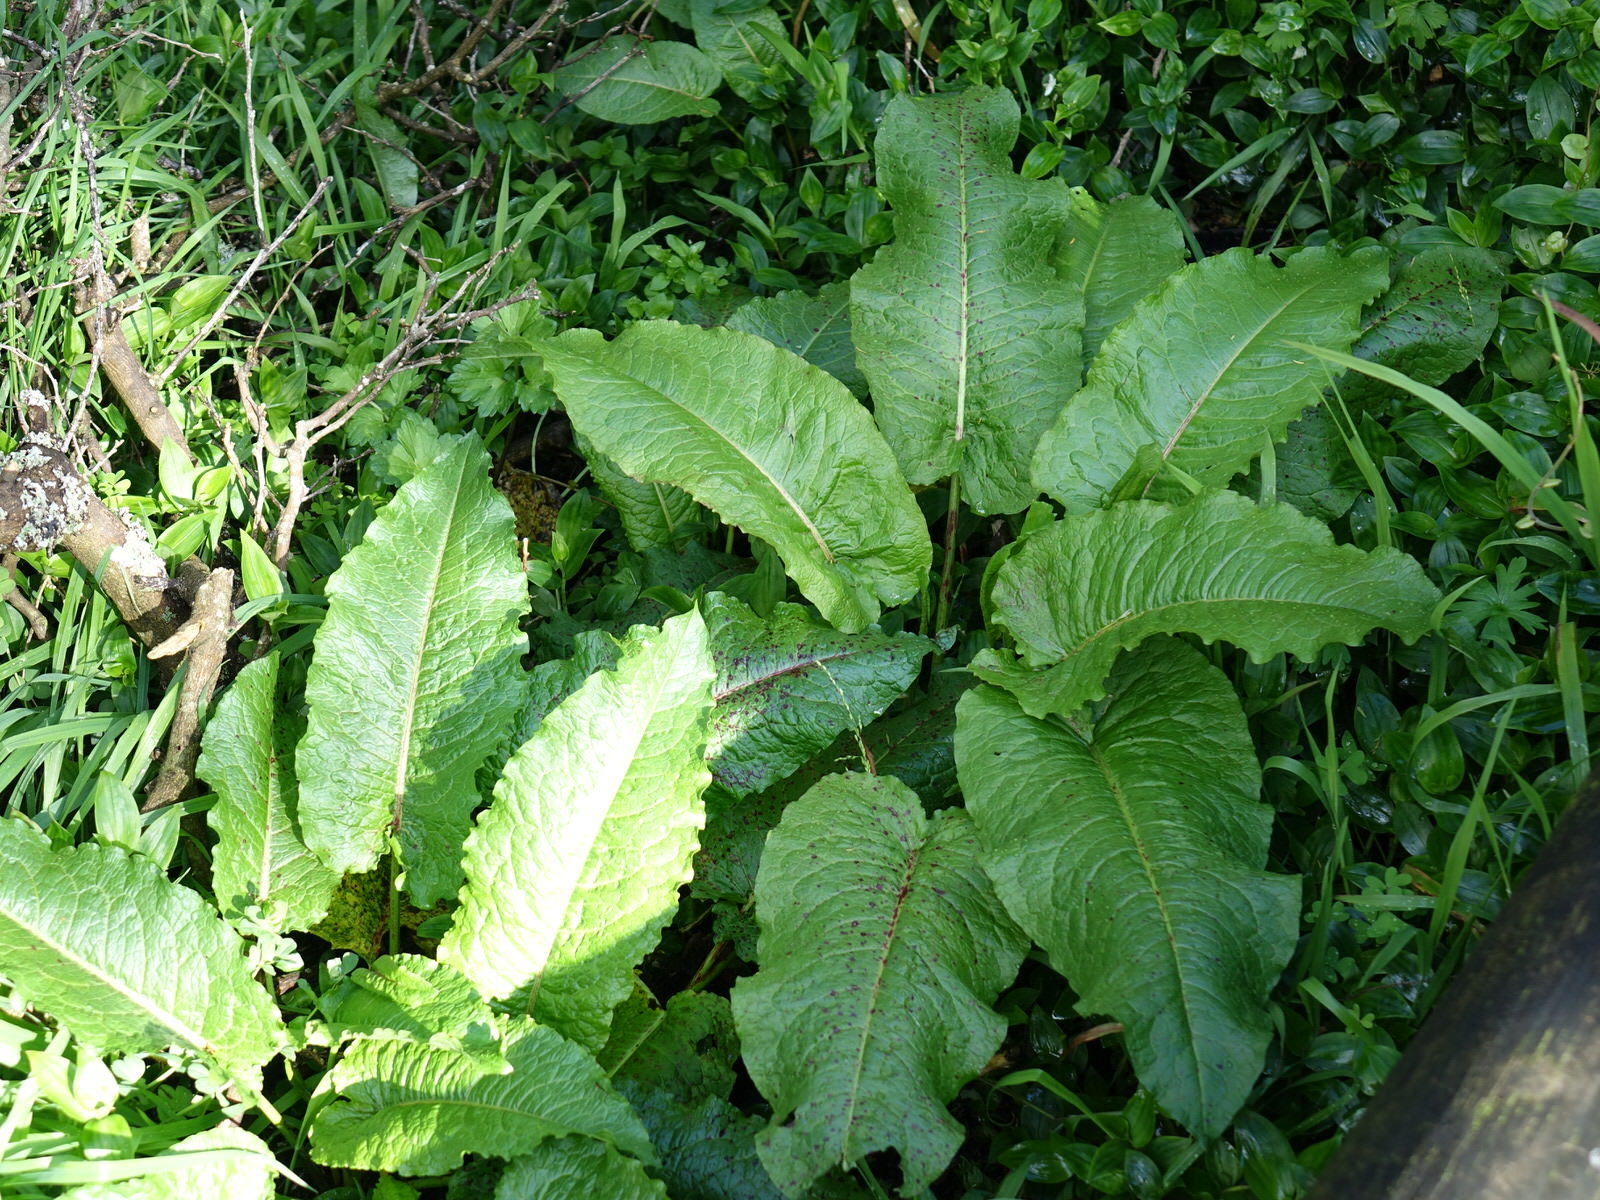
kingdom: Plantae
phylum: Tracheophyta
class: Magnoliopsida
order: Caryophyllales
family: Polygonaceae
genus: Rumex
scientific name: Rumex obtusifolius
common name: Bitter dock
